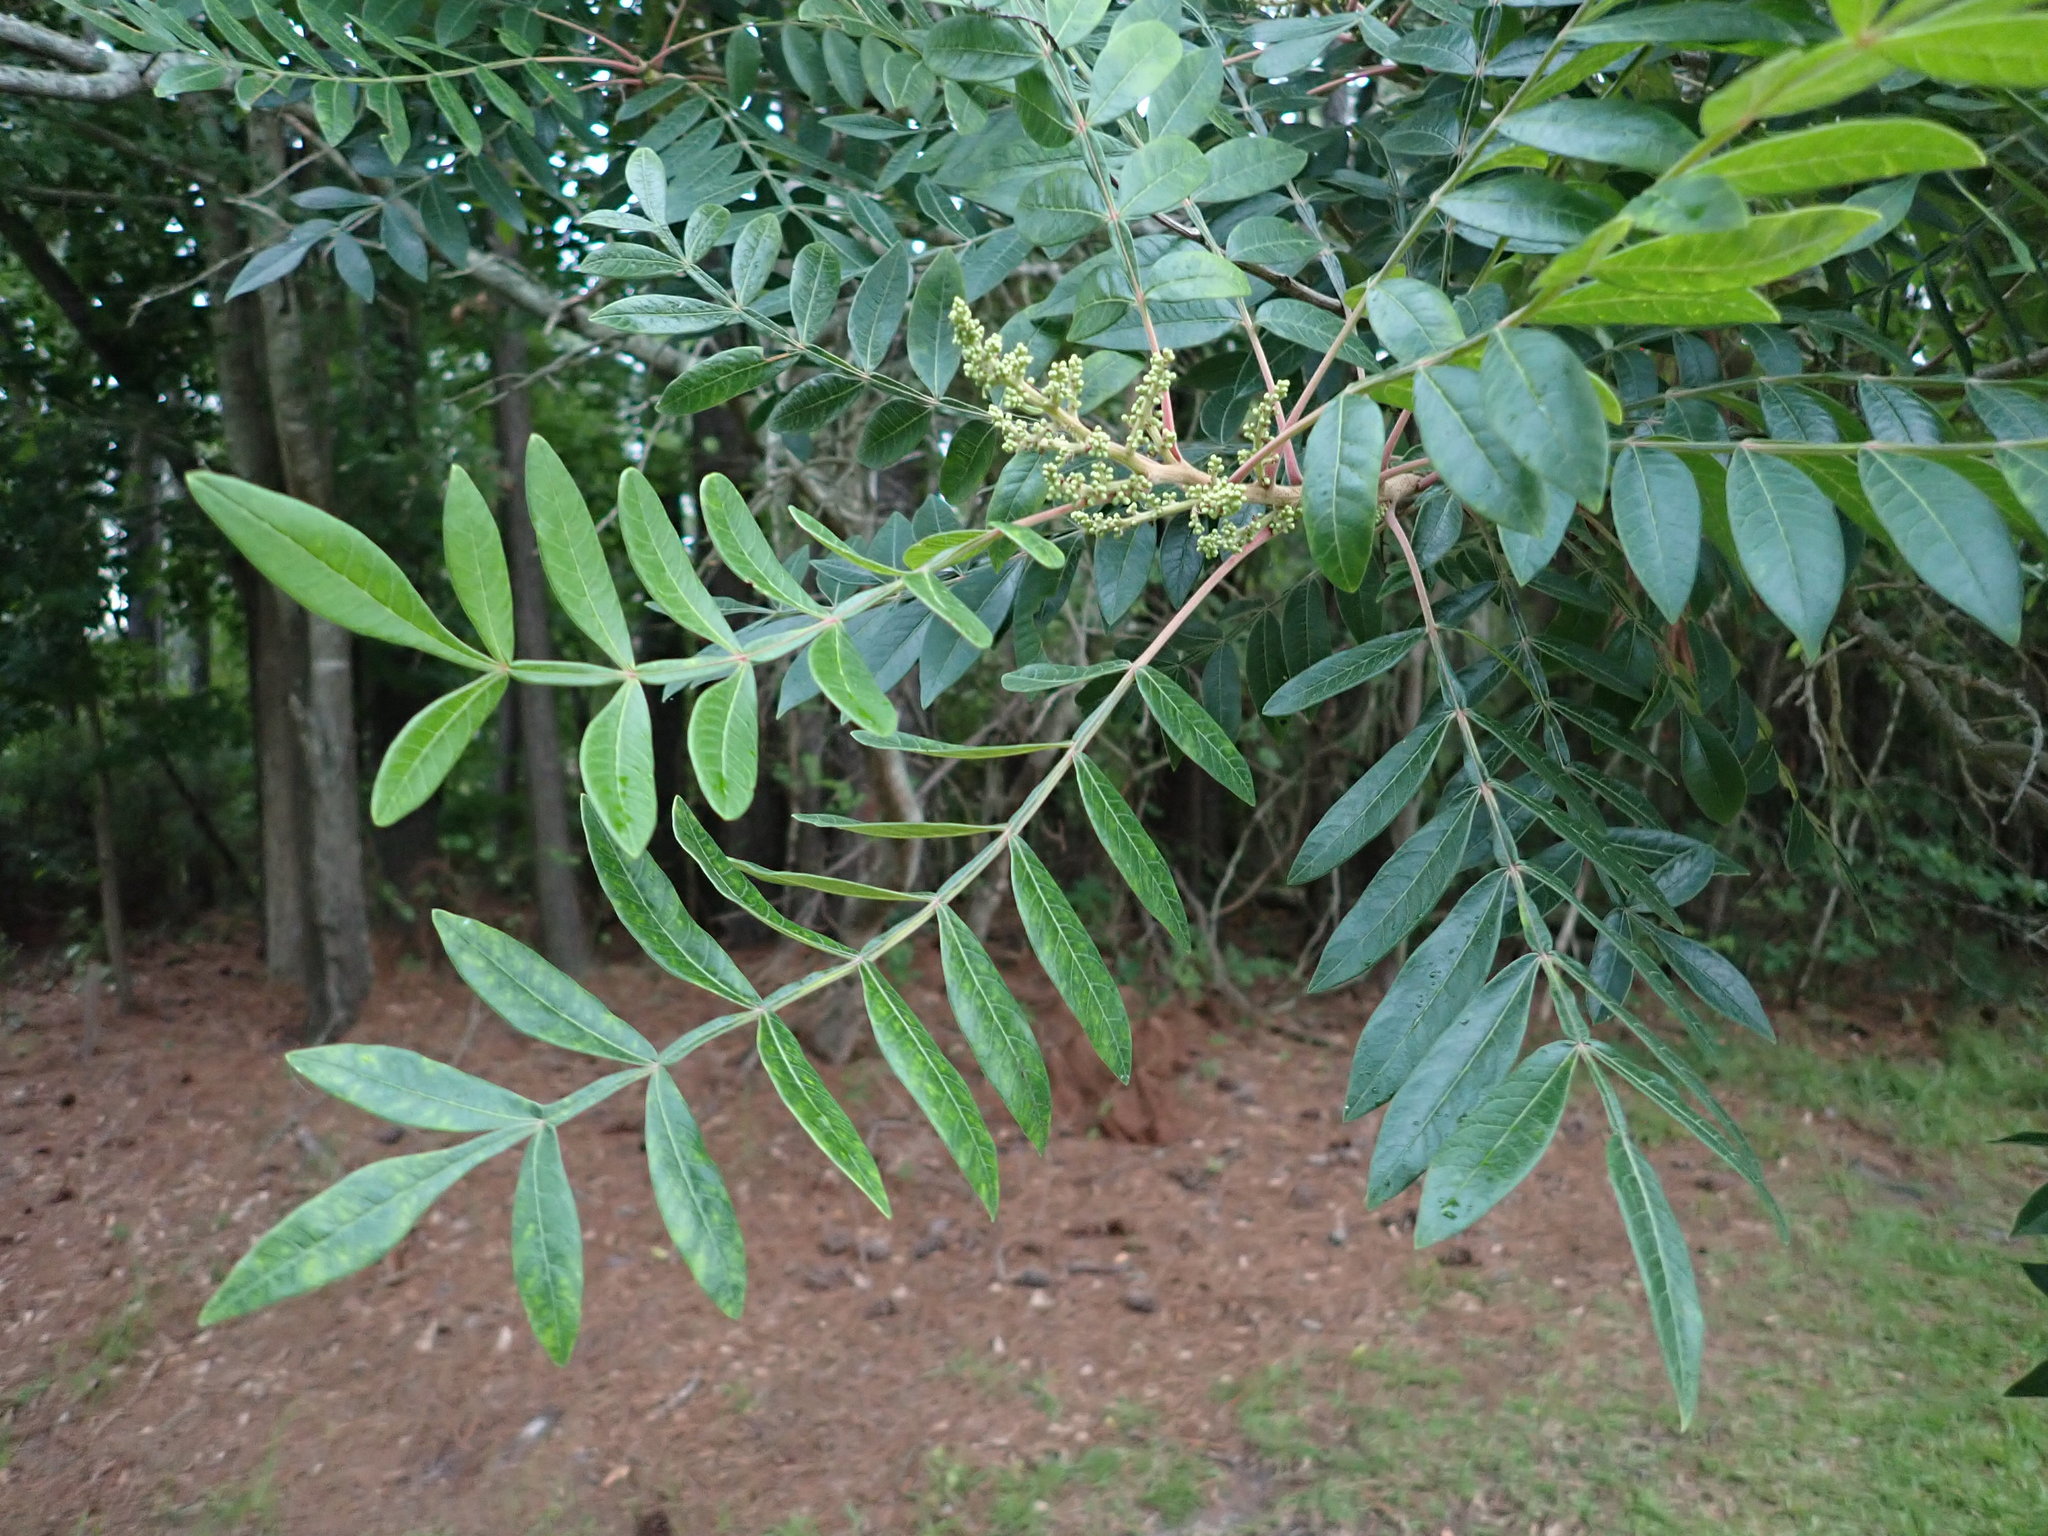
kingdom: Plantae
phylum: Tracheophyta
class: Magnoliopsida
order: Sapindales
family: Anacardiaceae
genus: Rhus
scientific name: Rhus copallina
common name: Shining sumac
